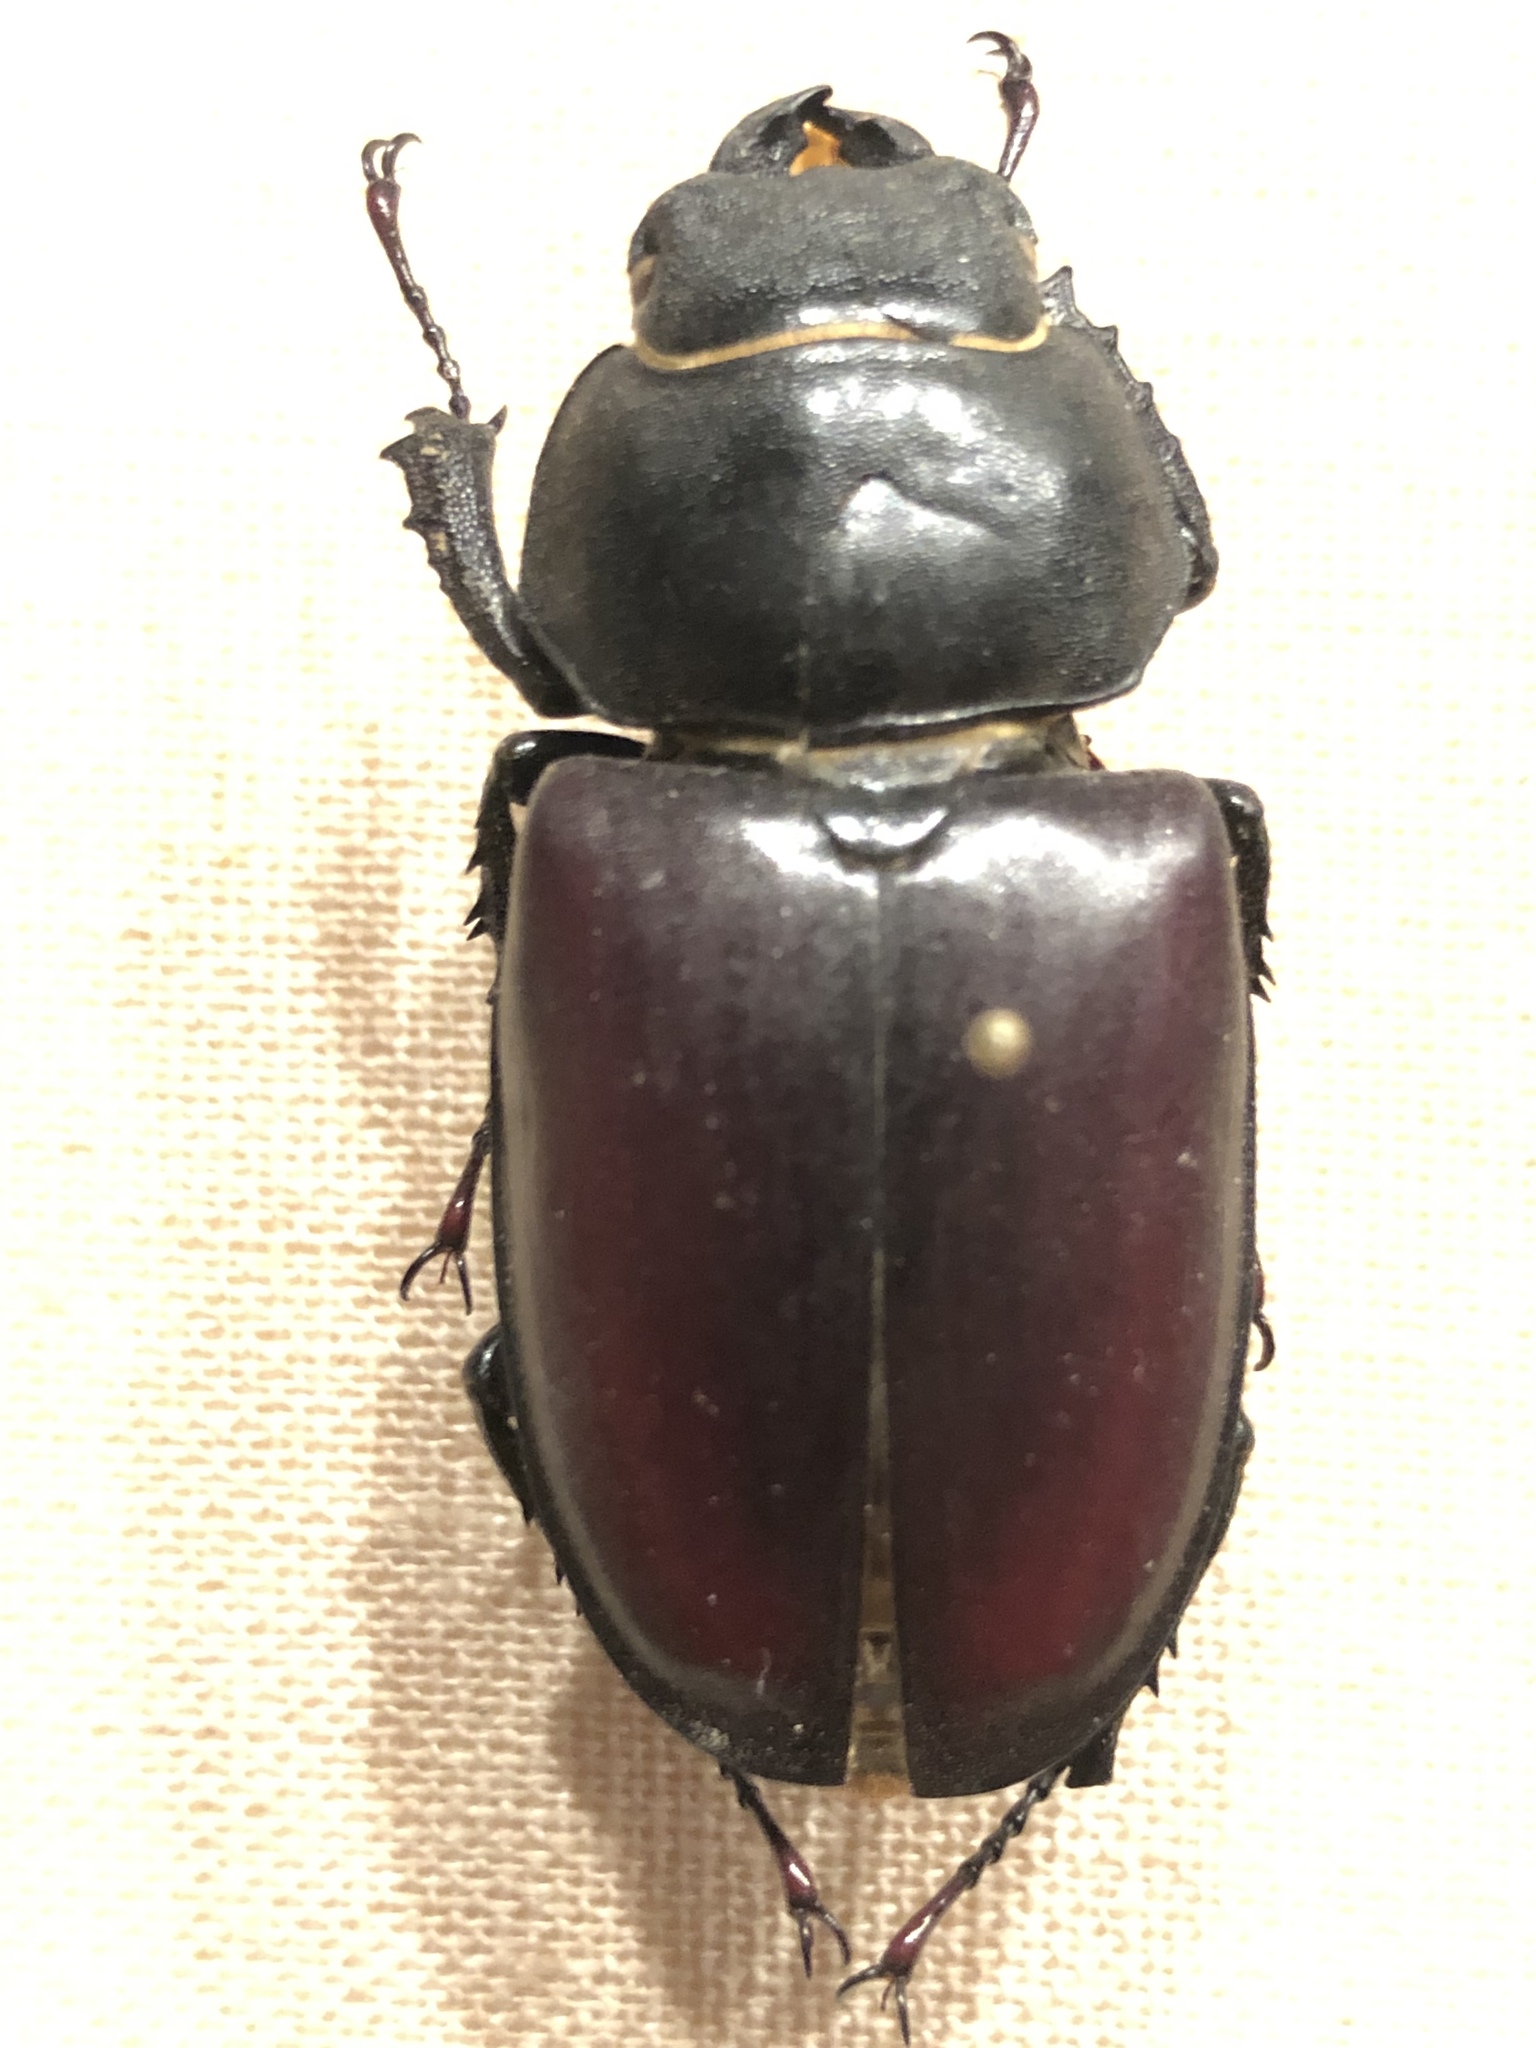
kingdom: Animalia
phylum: Arthropoda
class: Insecta
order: Coleoptera
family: Lucanidae
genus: Lucanus
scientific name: Lucanus cervus
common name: Stag beetle
